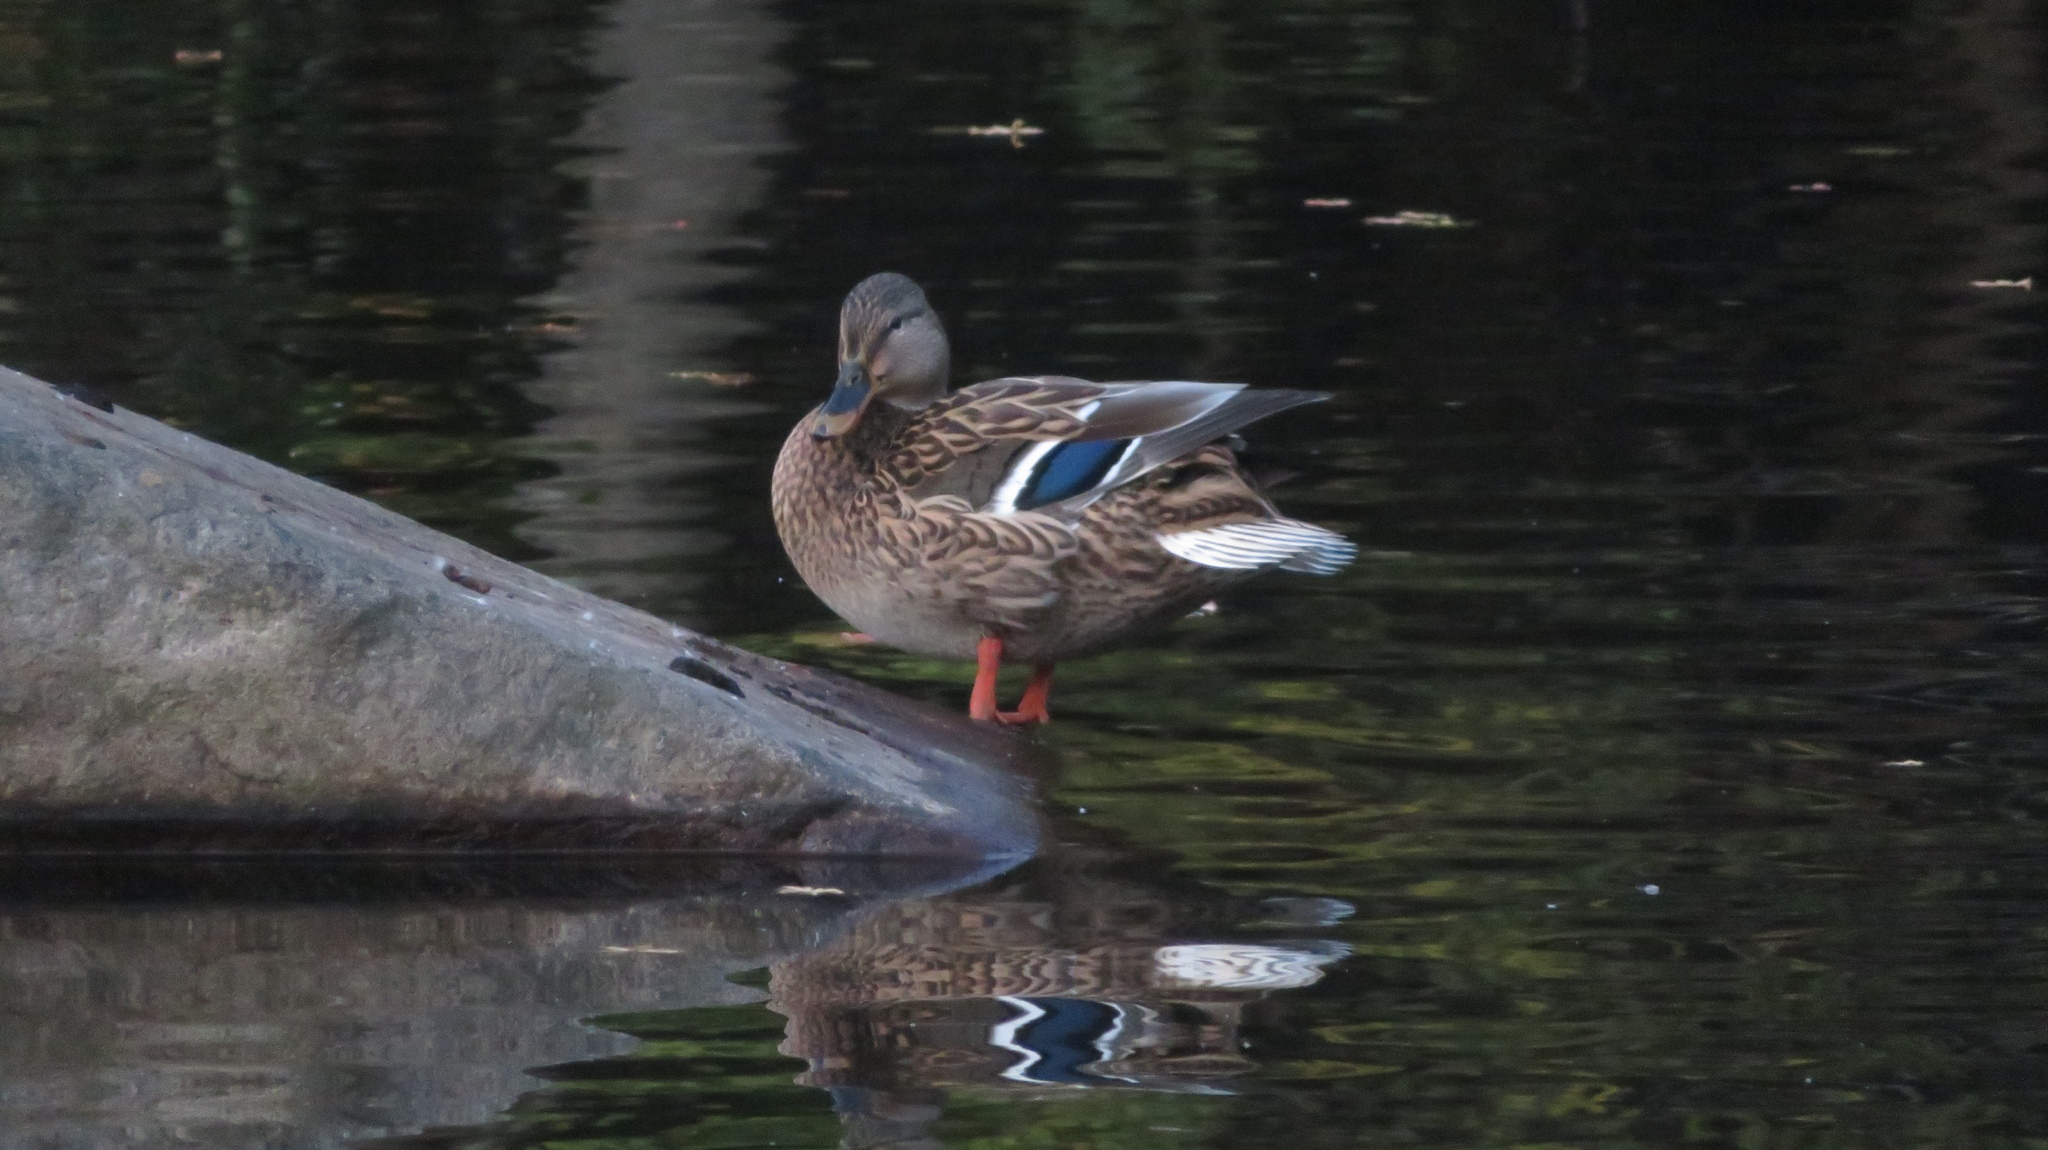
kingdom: Animalia
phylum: Chordata
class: Aves
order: Anseriformes
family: Anatidae
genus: Anas
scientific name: Anas platyrhynchos
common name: Mallard
